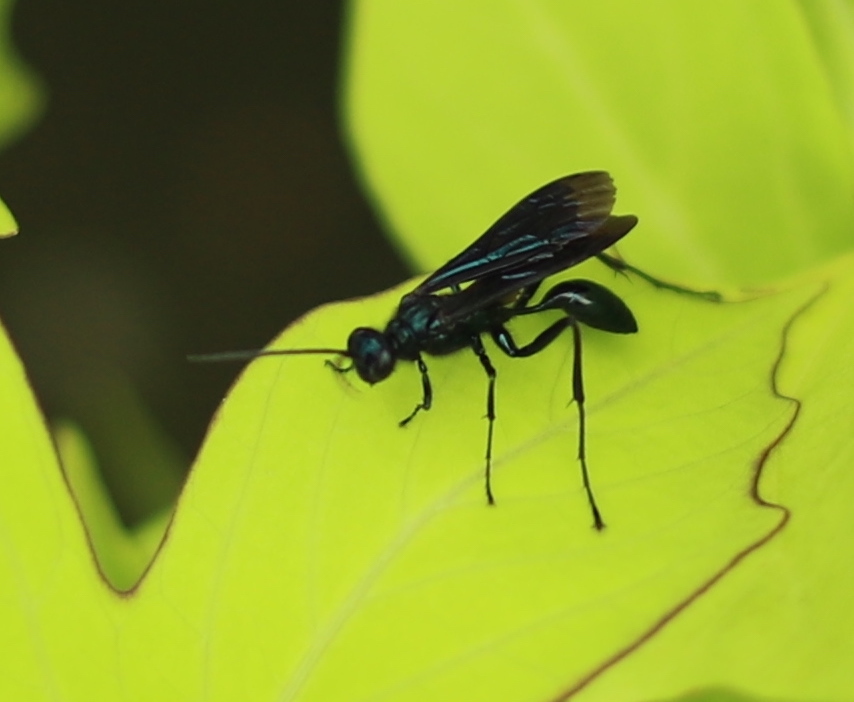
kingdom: Animalia
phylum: Arthropoda
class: Insecta
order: Hymenoptera
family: Sphecidae
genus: Chalybion
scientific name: Chalybion californicum
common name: Mud dauber
